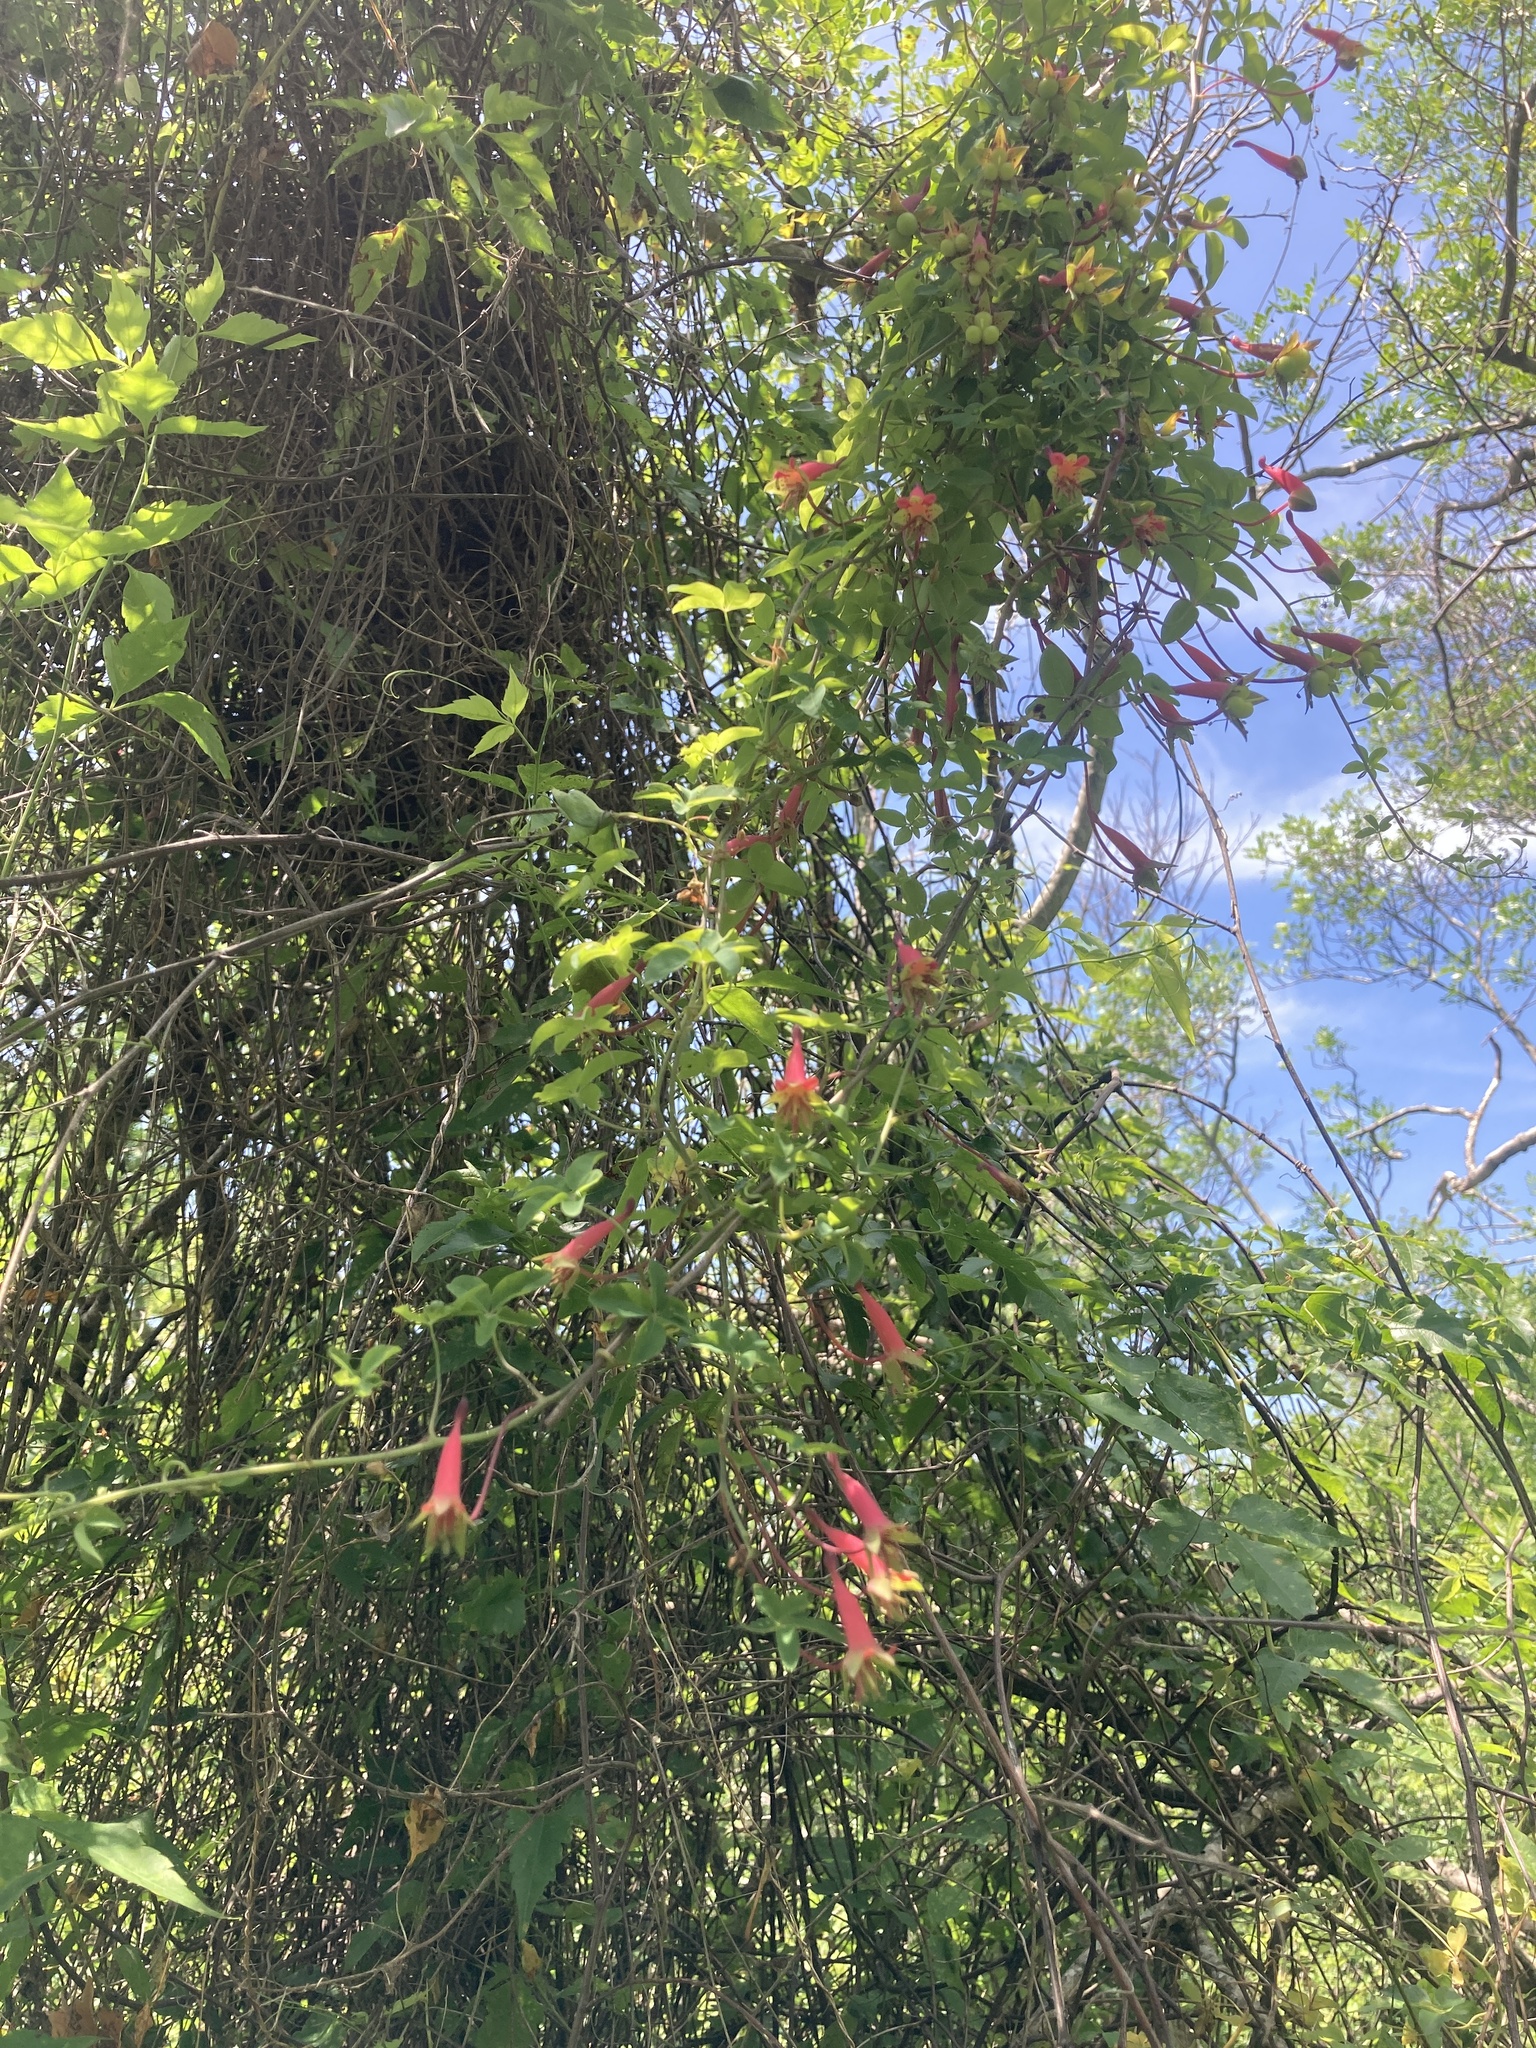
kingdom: Plantae
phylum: Tracheophyta
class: Magnoliopsida
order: Brassicales
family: Tropaeolaceae
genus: Tropaeolum
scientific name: Tropaeolum pentaphyllum
